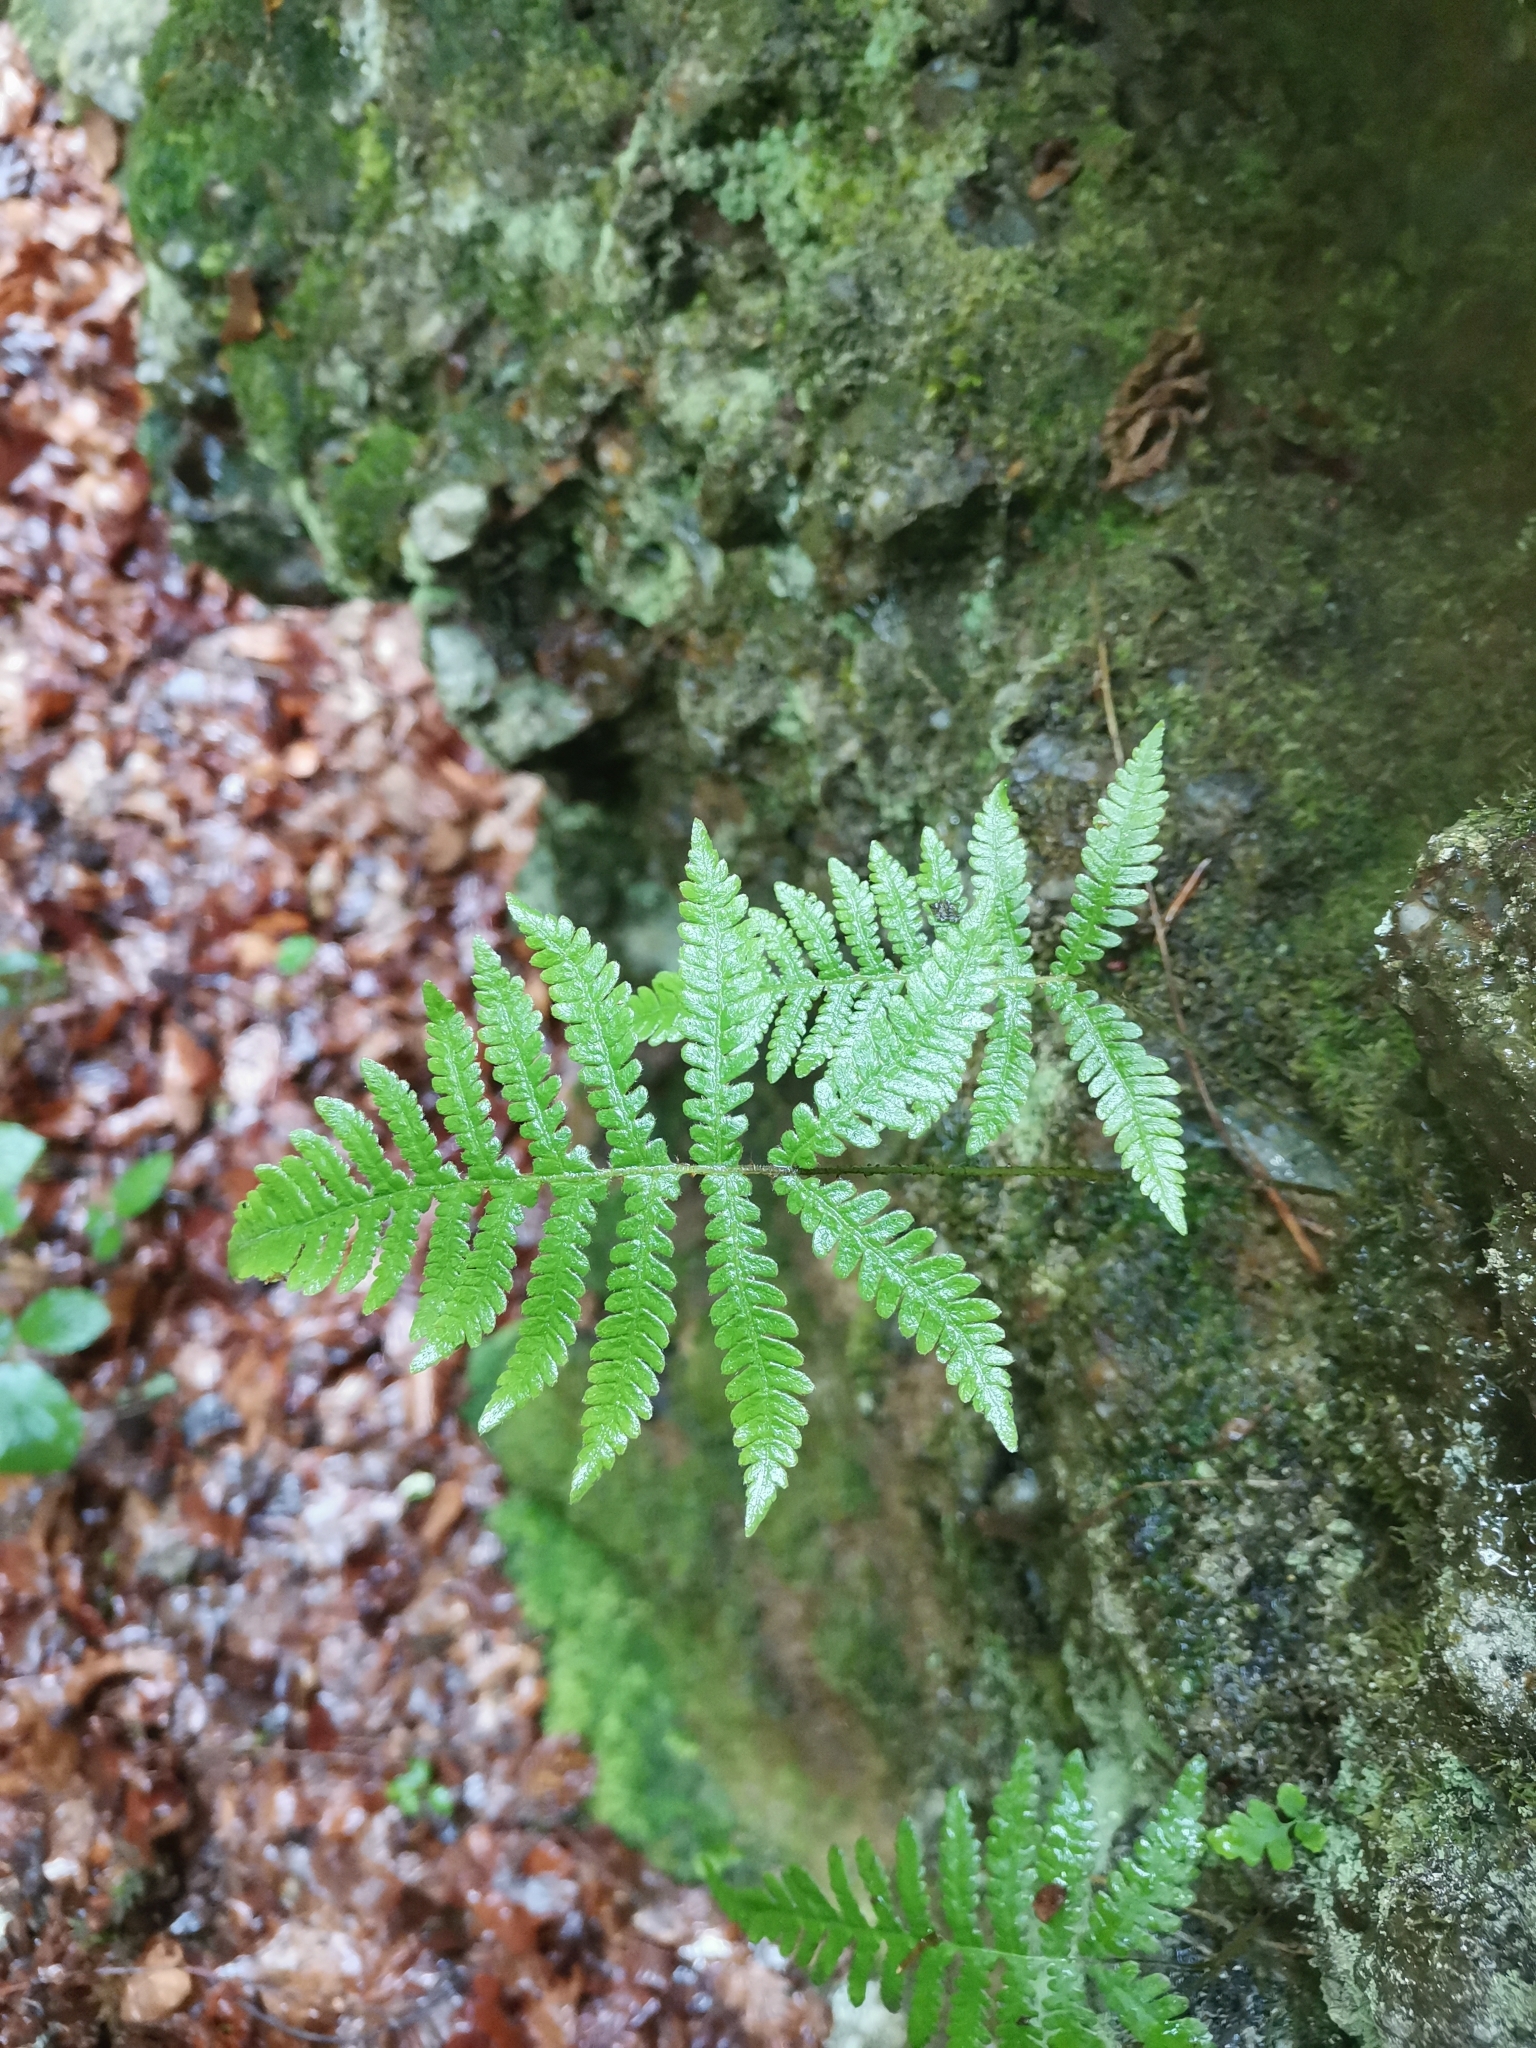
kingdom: Plantae
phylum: Tracheophyta
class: Polypodiopsida
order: Polypodiales
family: Thelypteridaceae
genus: Phegopteris
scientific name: Phegopteris connectilis
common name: Beech fern
